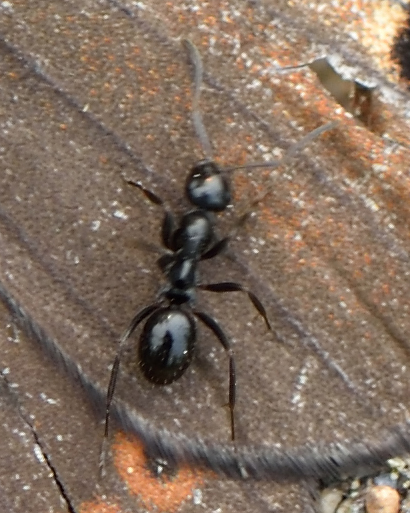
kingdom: Animalia
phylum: Arthropoda
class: Insecta
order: Hymenoptera
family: Formicidae
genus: Formica
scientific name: Formica candida
